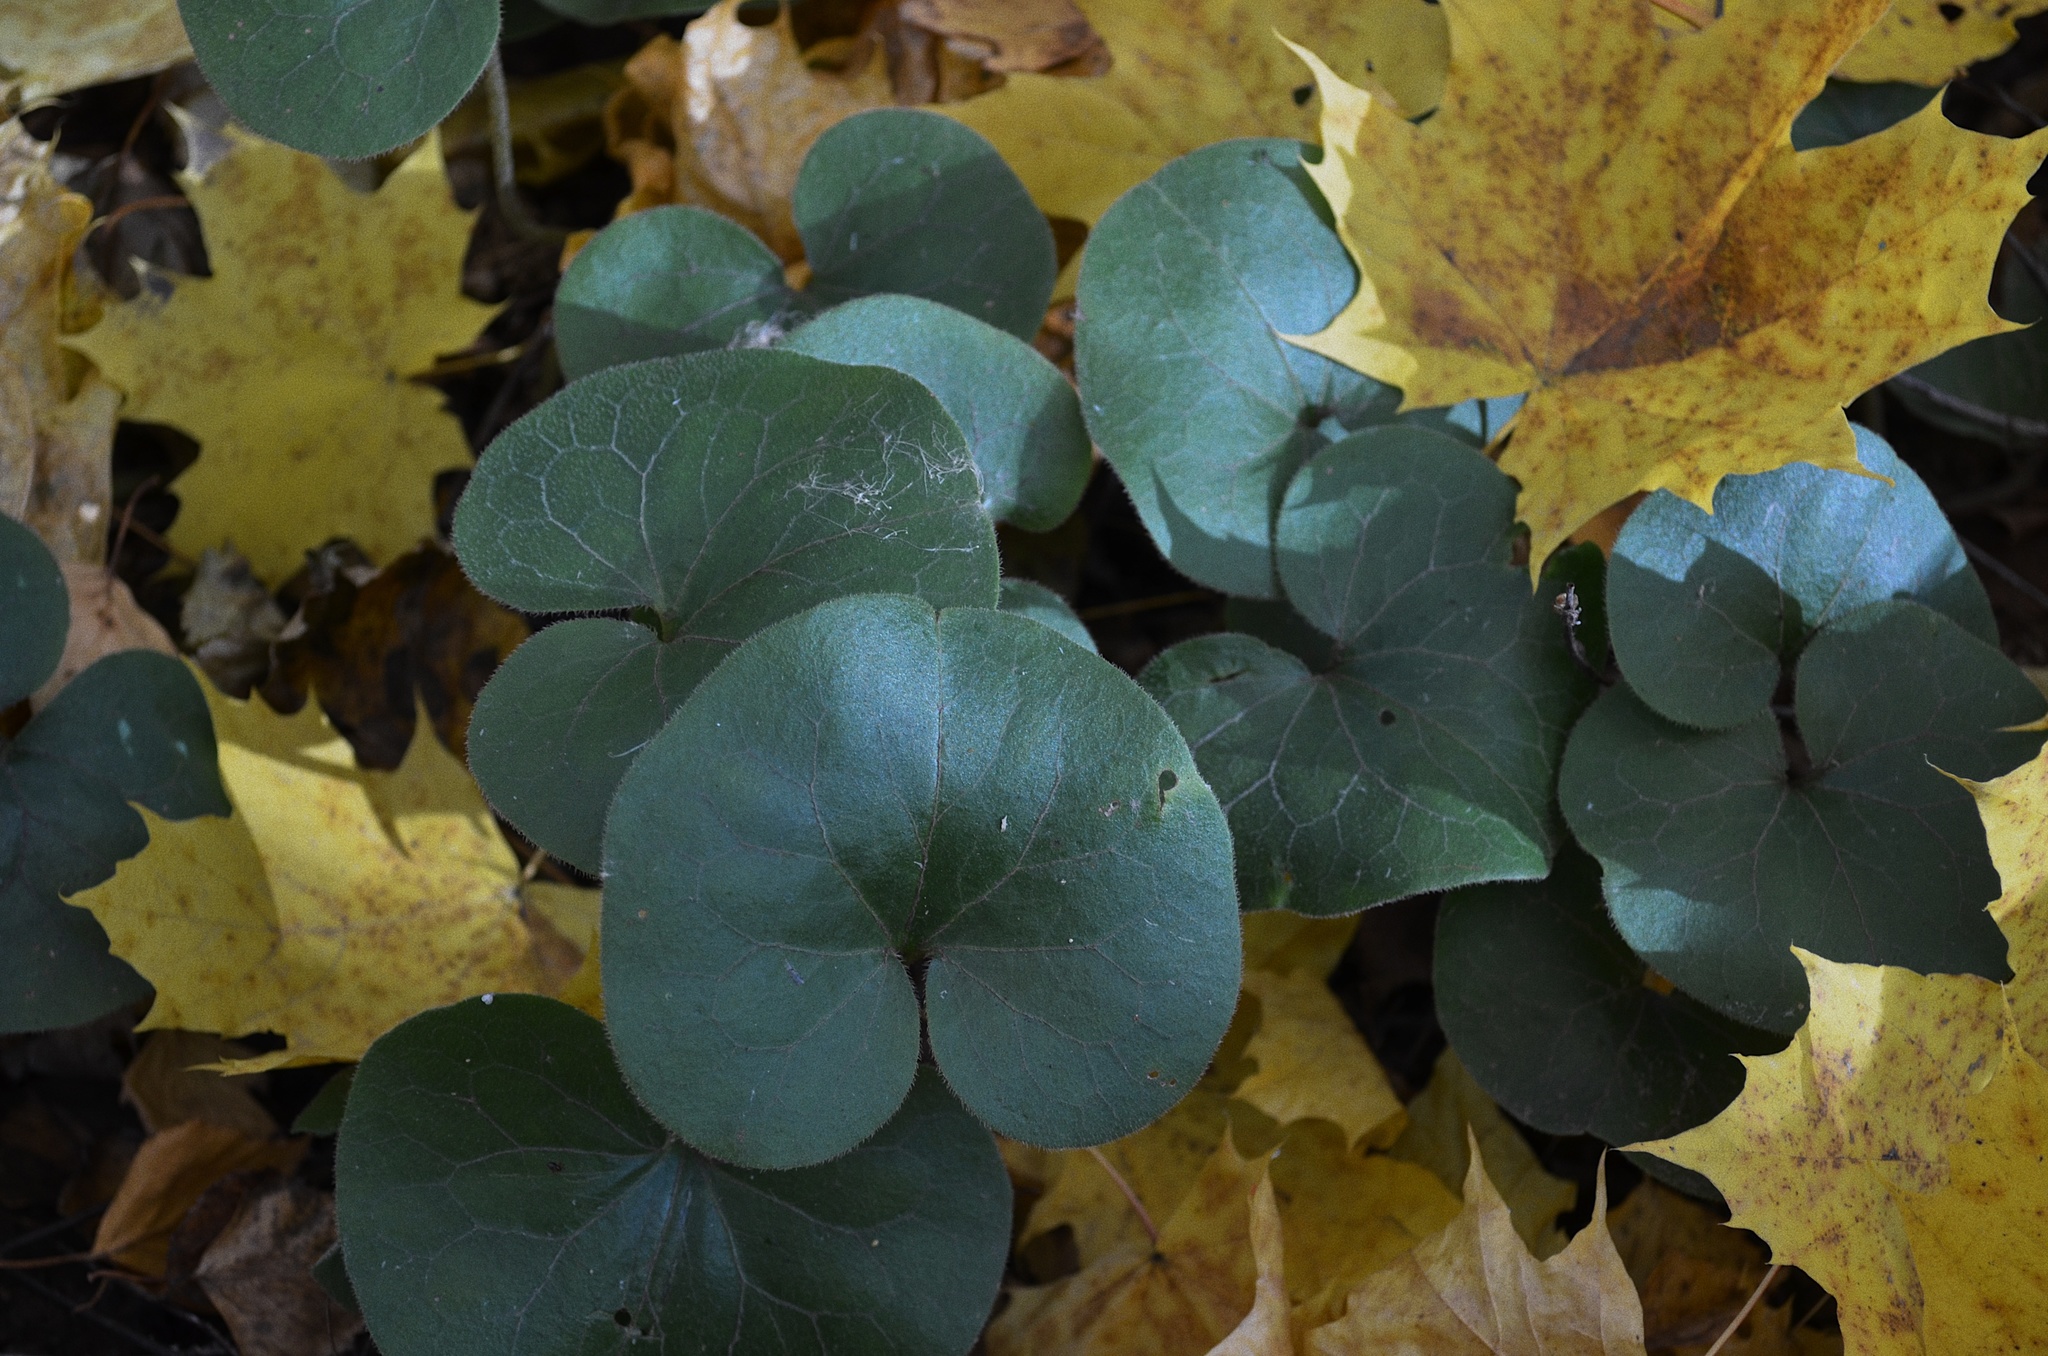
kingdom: Plantae
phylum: Tracheophyta
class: Magnoliopsida
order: Piperales
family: Aristolochiaceae
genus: Asarum
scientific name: Asarum europaeum
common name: Asarabacca
